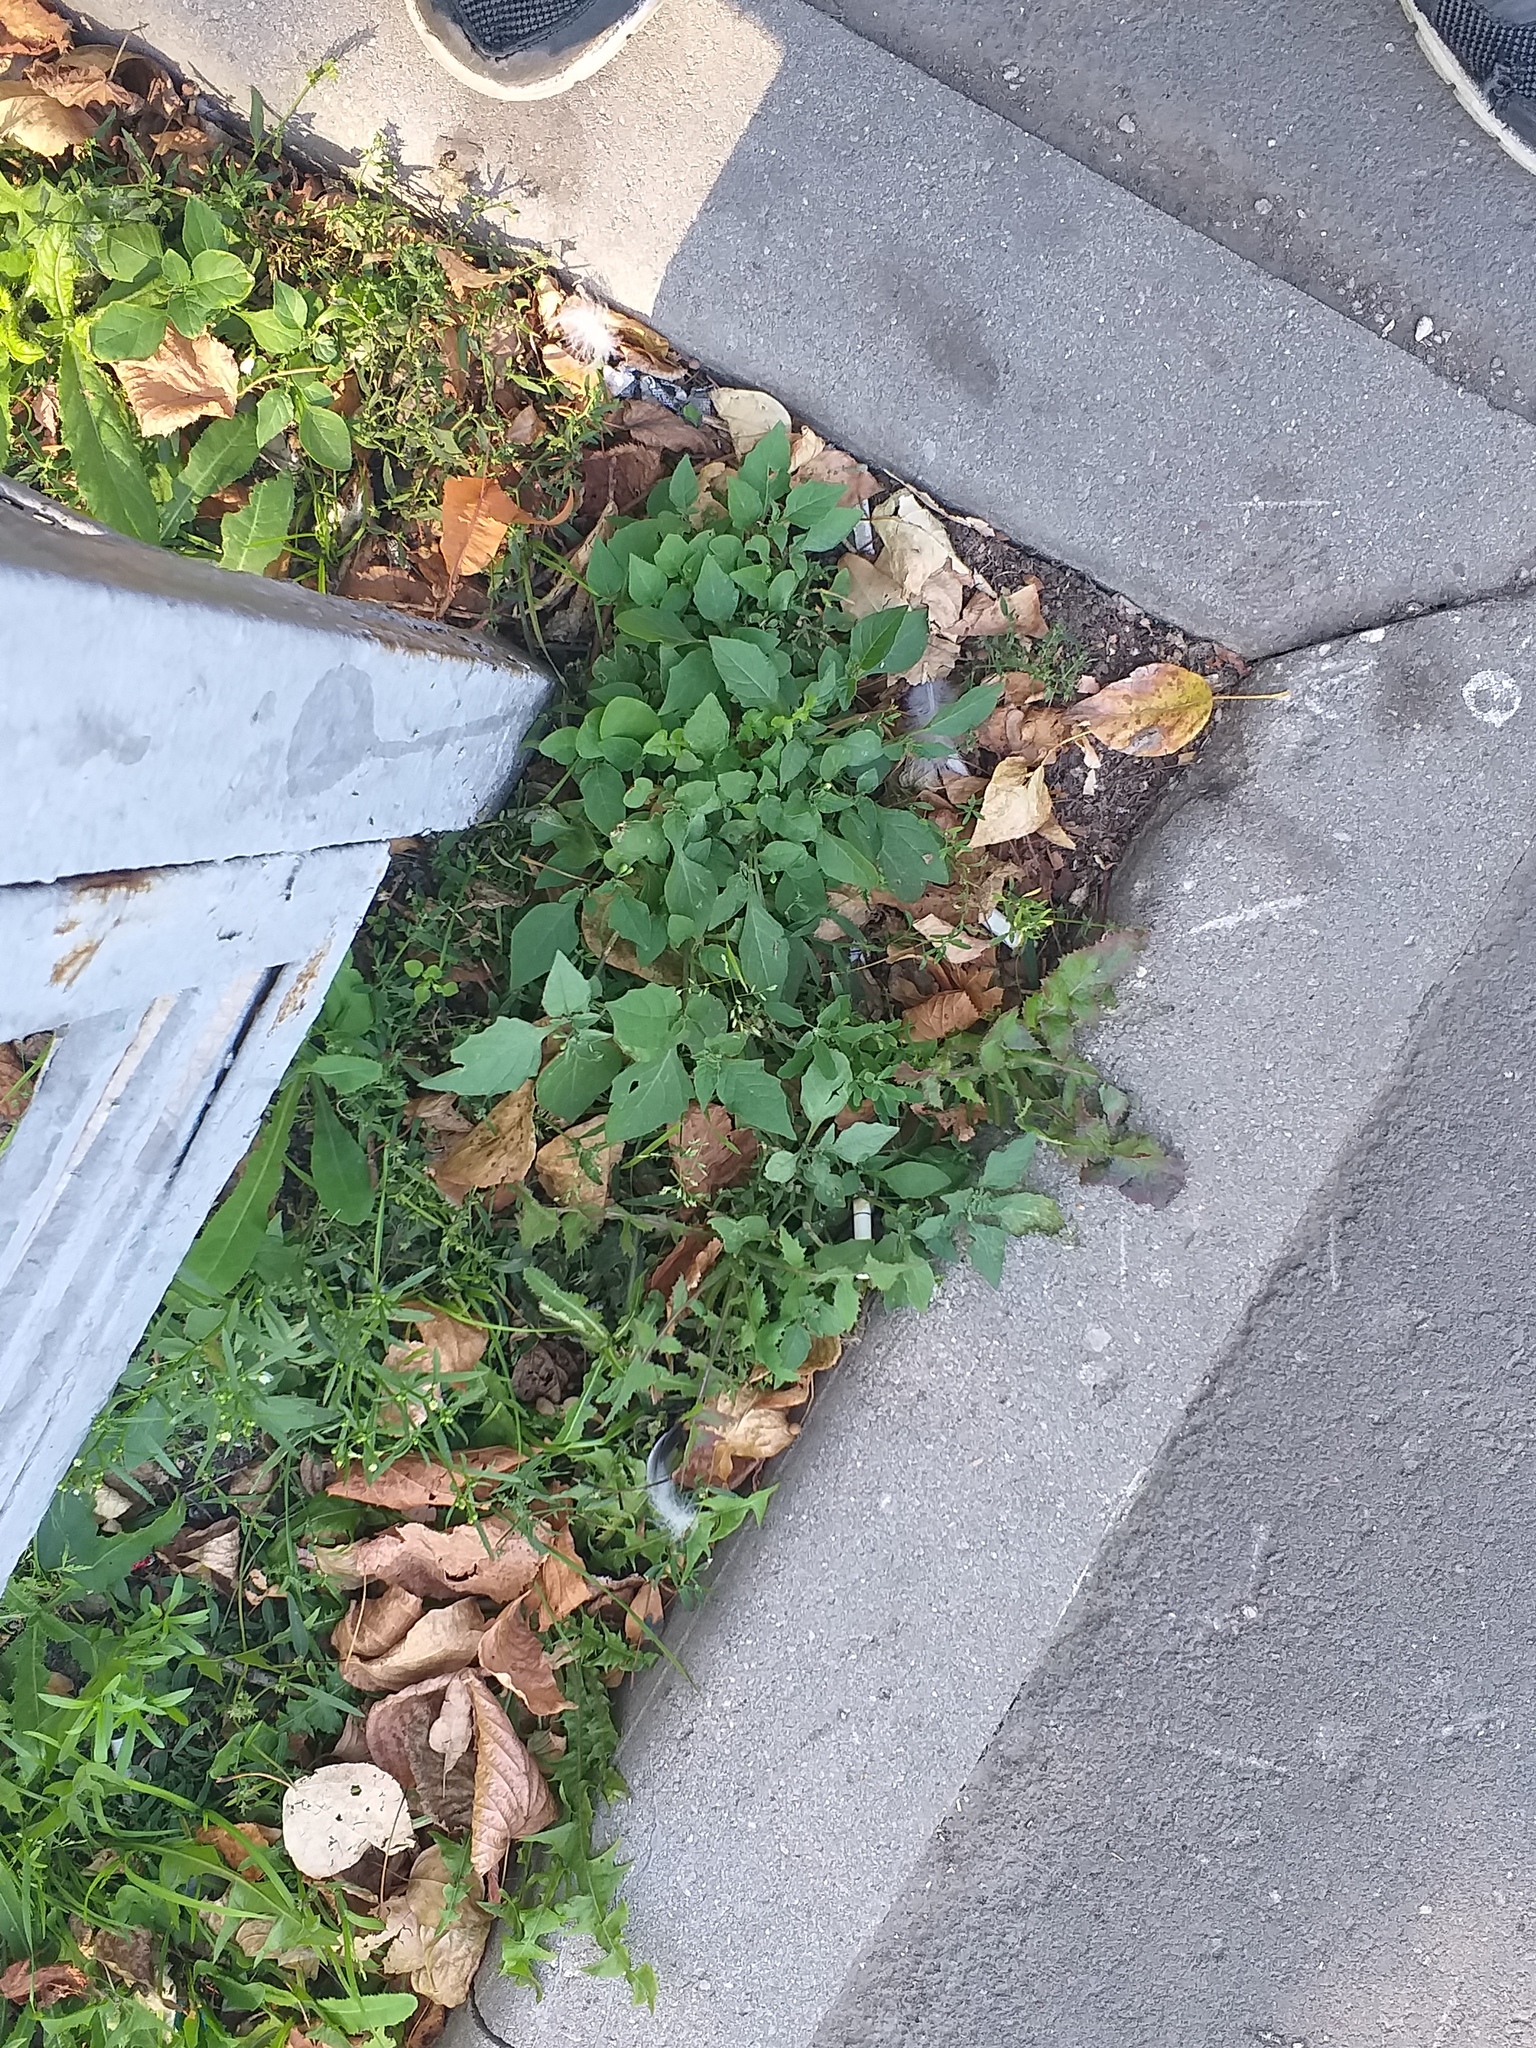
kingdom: Plantae
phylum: Tracheophyta
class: Magnoliopsida
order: Solanales
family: Solanaceae
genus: Solanum
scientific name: Solanum nigrum
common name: Black nightshade
